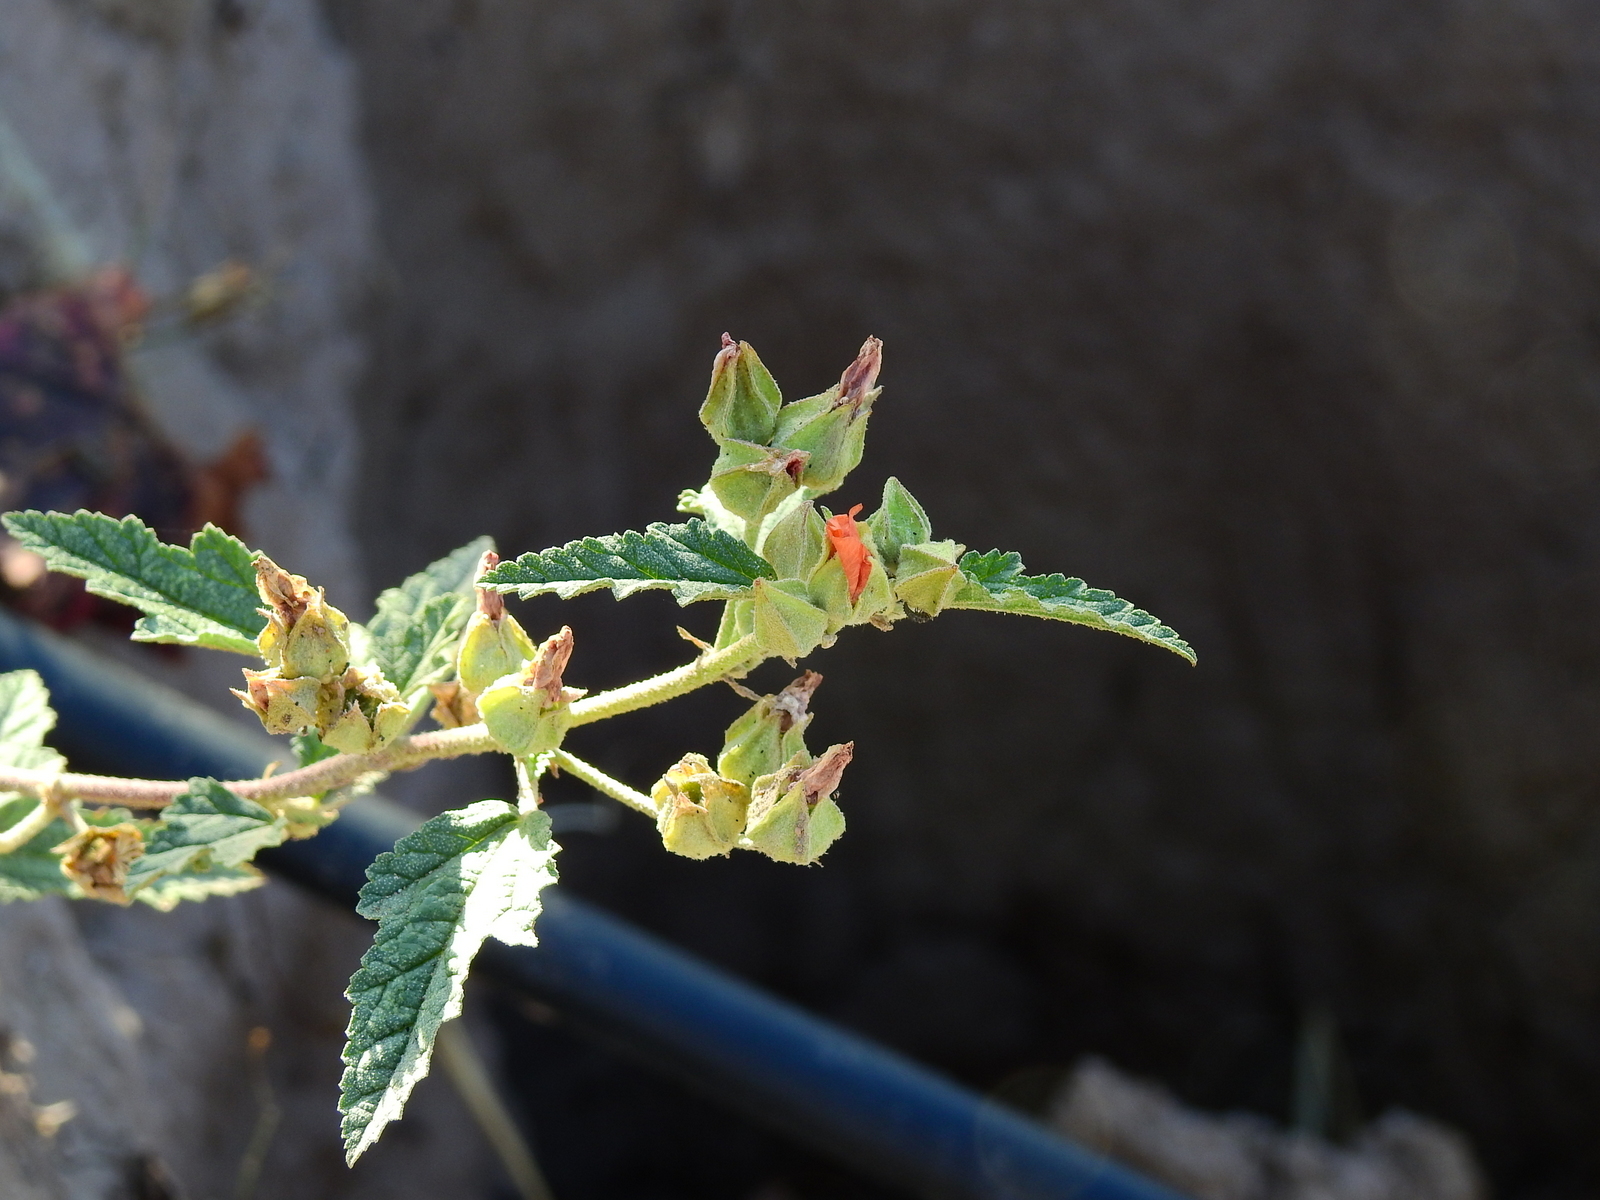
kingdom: Plantae
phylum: Tracheophyta
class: Magnoliopsida
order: Malvales
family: Malvaceae
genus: Sphaeralcea
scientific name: Sphaeralcea miniata
